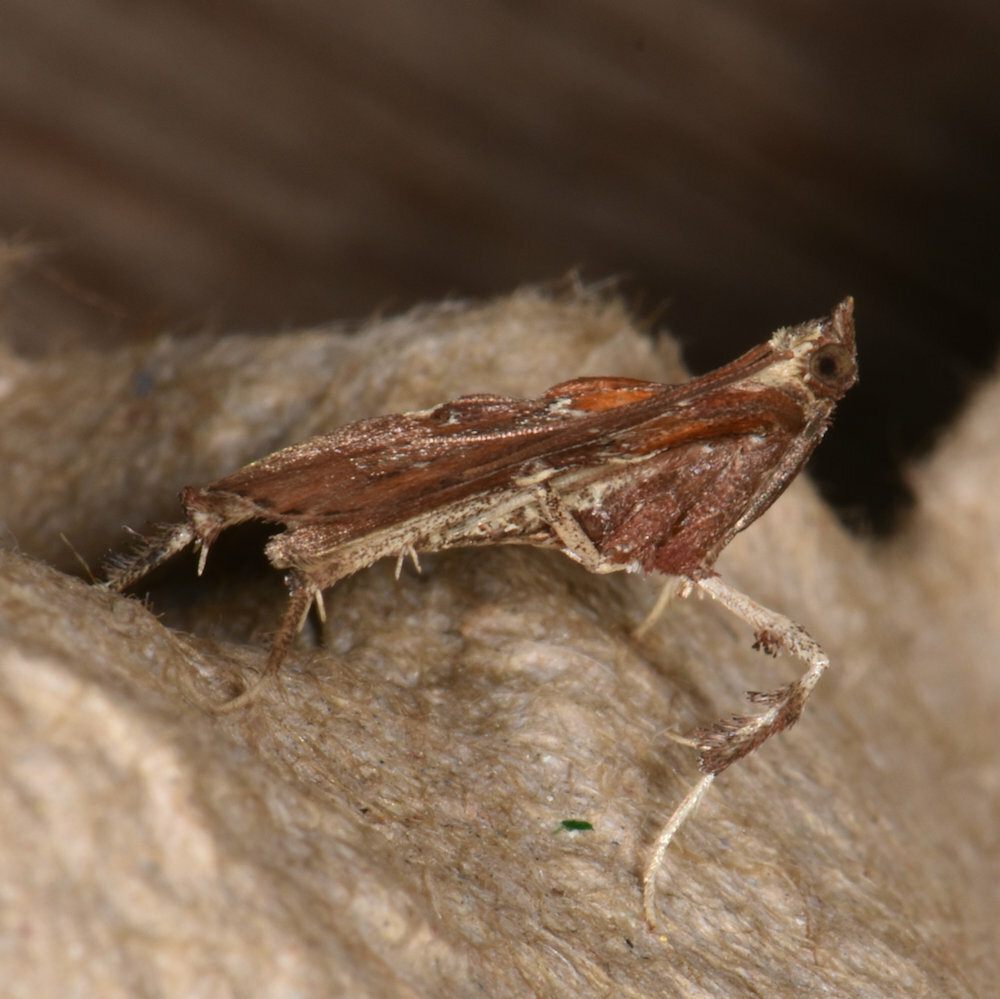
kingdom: Animalia
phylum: Arthropoda
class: Insecta
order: Lepidoptera
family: Pyralidae
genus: Galasa
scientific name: Galasa nigrinodis
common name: Boxwood leaftier moth
